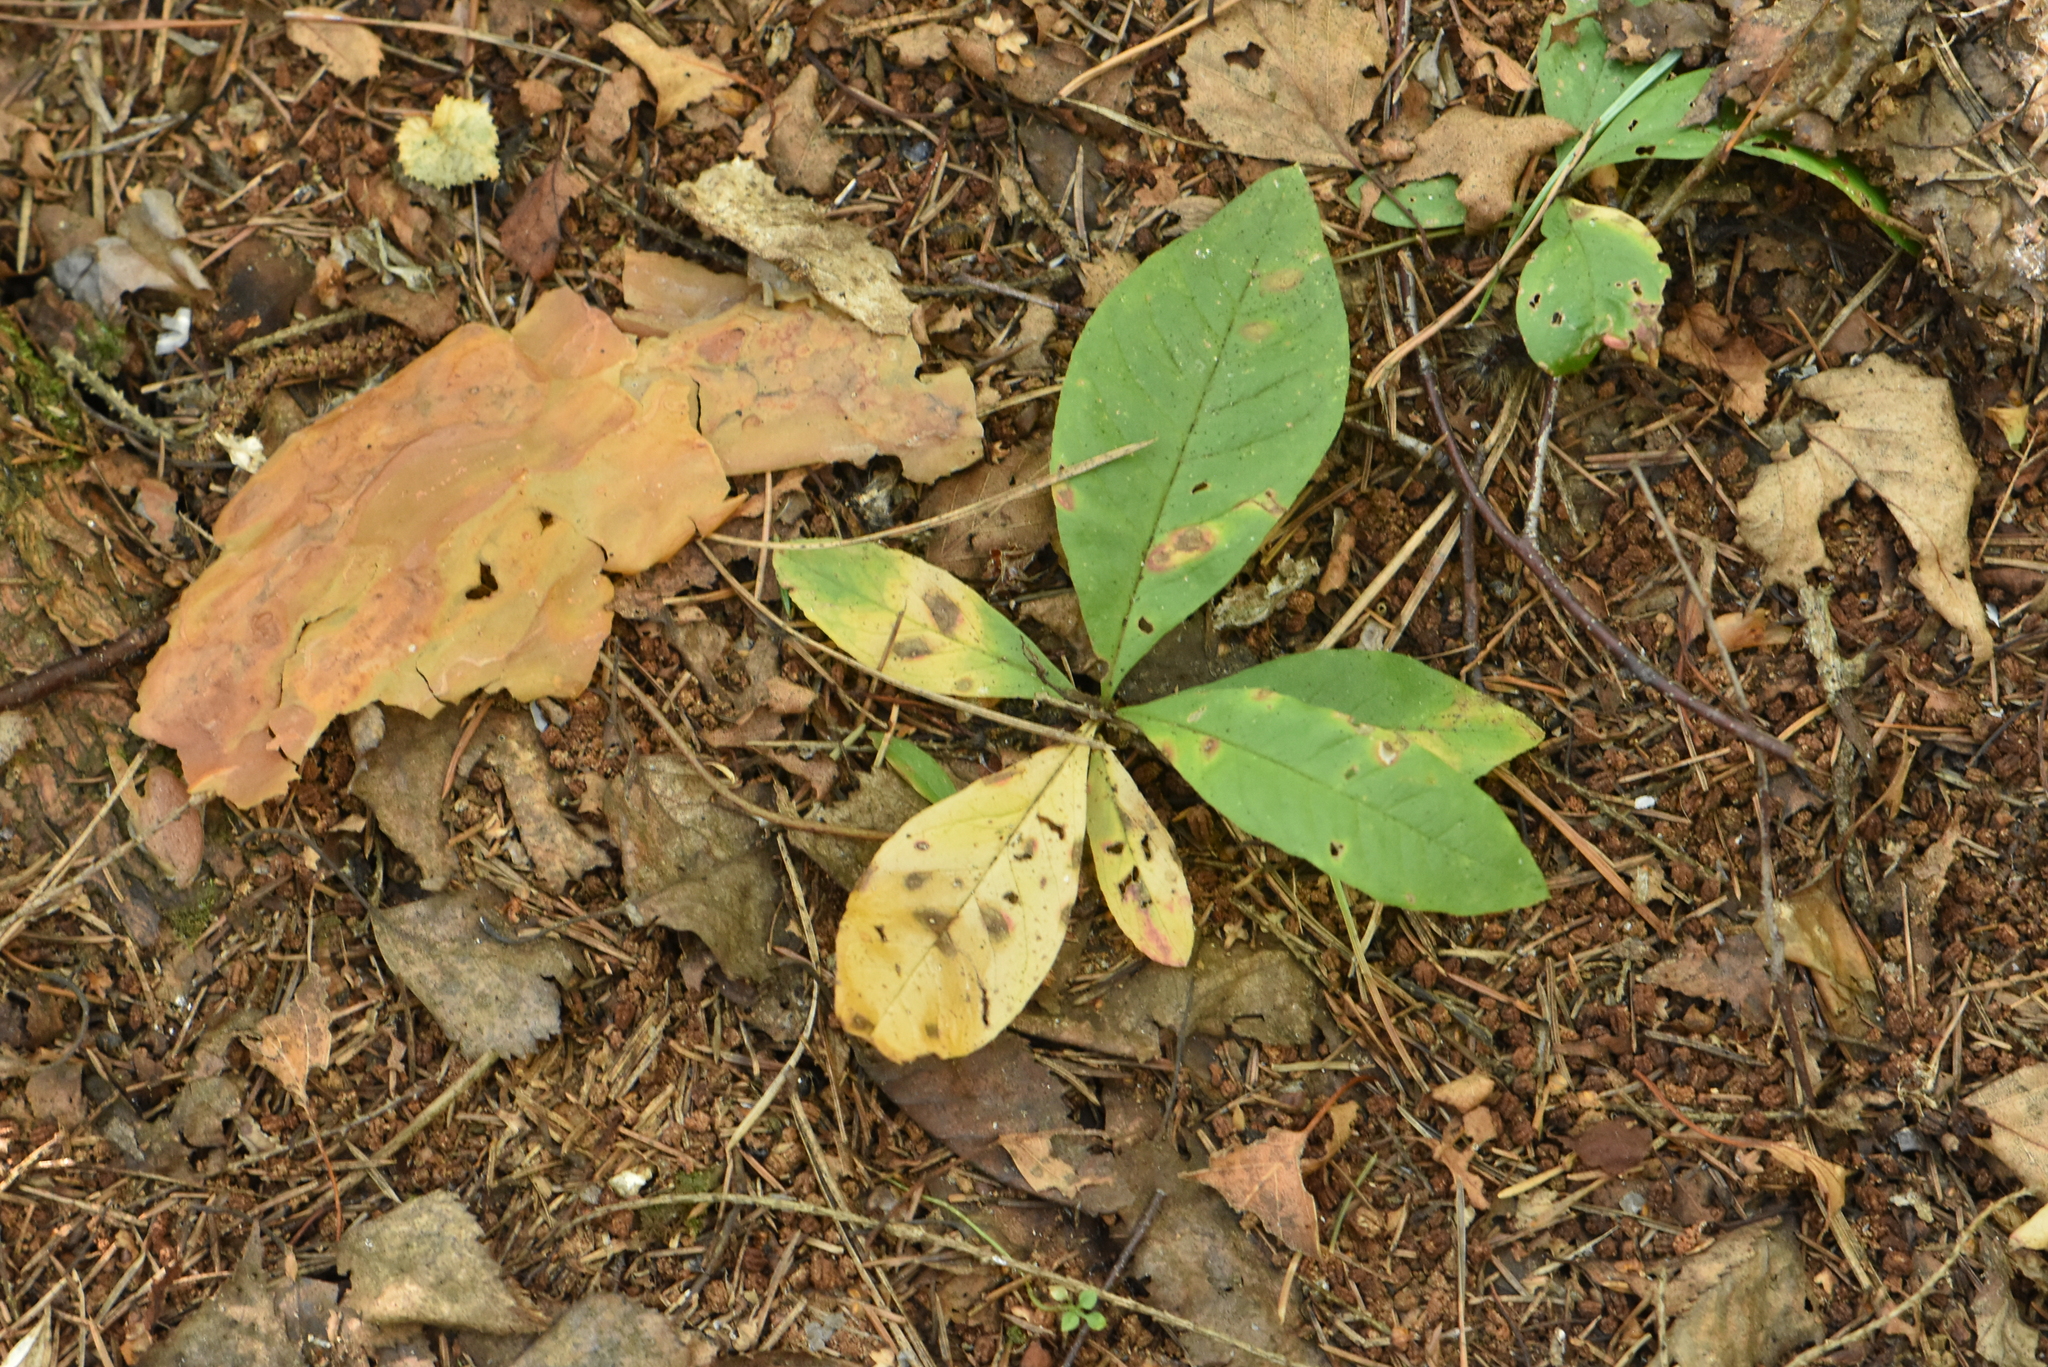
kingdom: Plantae
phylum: Tracheophyta
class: Magnoliopsida
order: Ericales
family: Primulaceae
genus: Lysimachia
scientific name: Lysimachia europaea
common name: Arctic starflower
